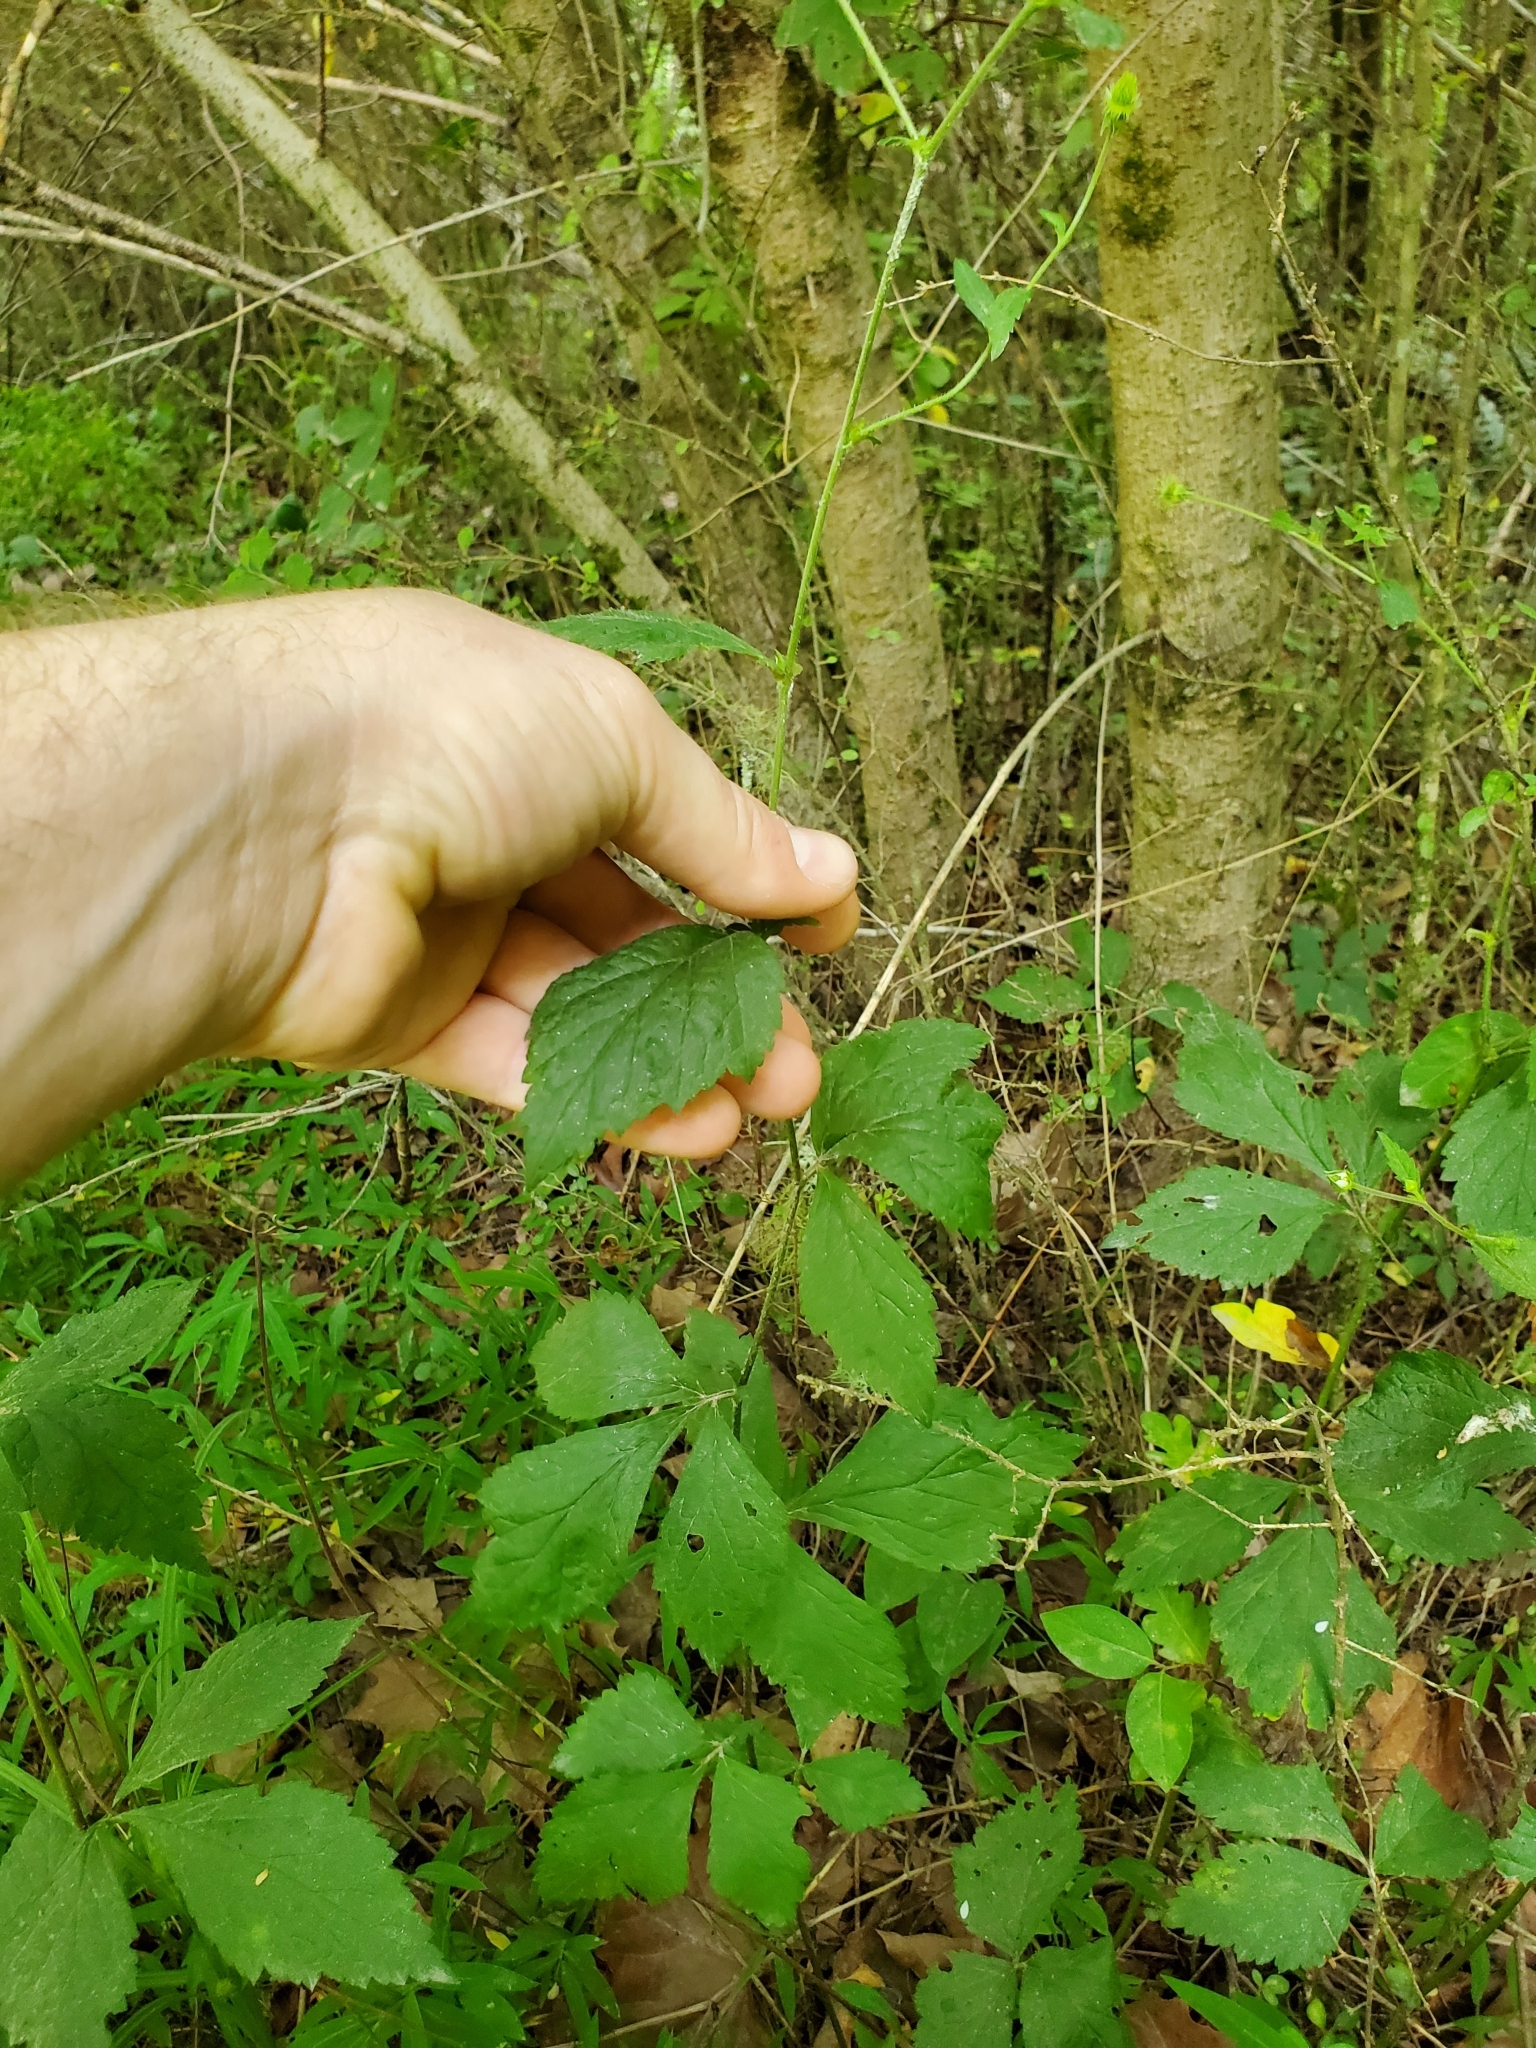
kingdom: Plantae
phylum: Tracheophyta
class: Magnoliopsida
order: Rosales
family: Rosaceae
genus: Geum
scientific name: Geum canadense
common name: White avens
